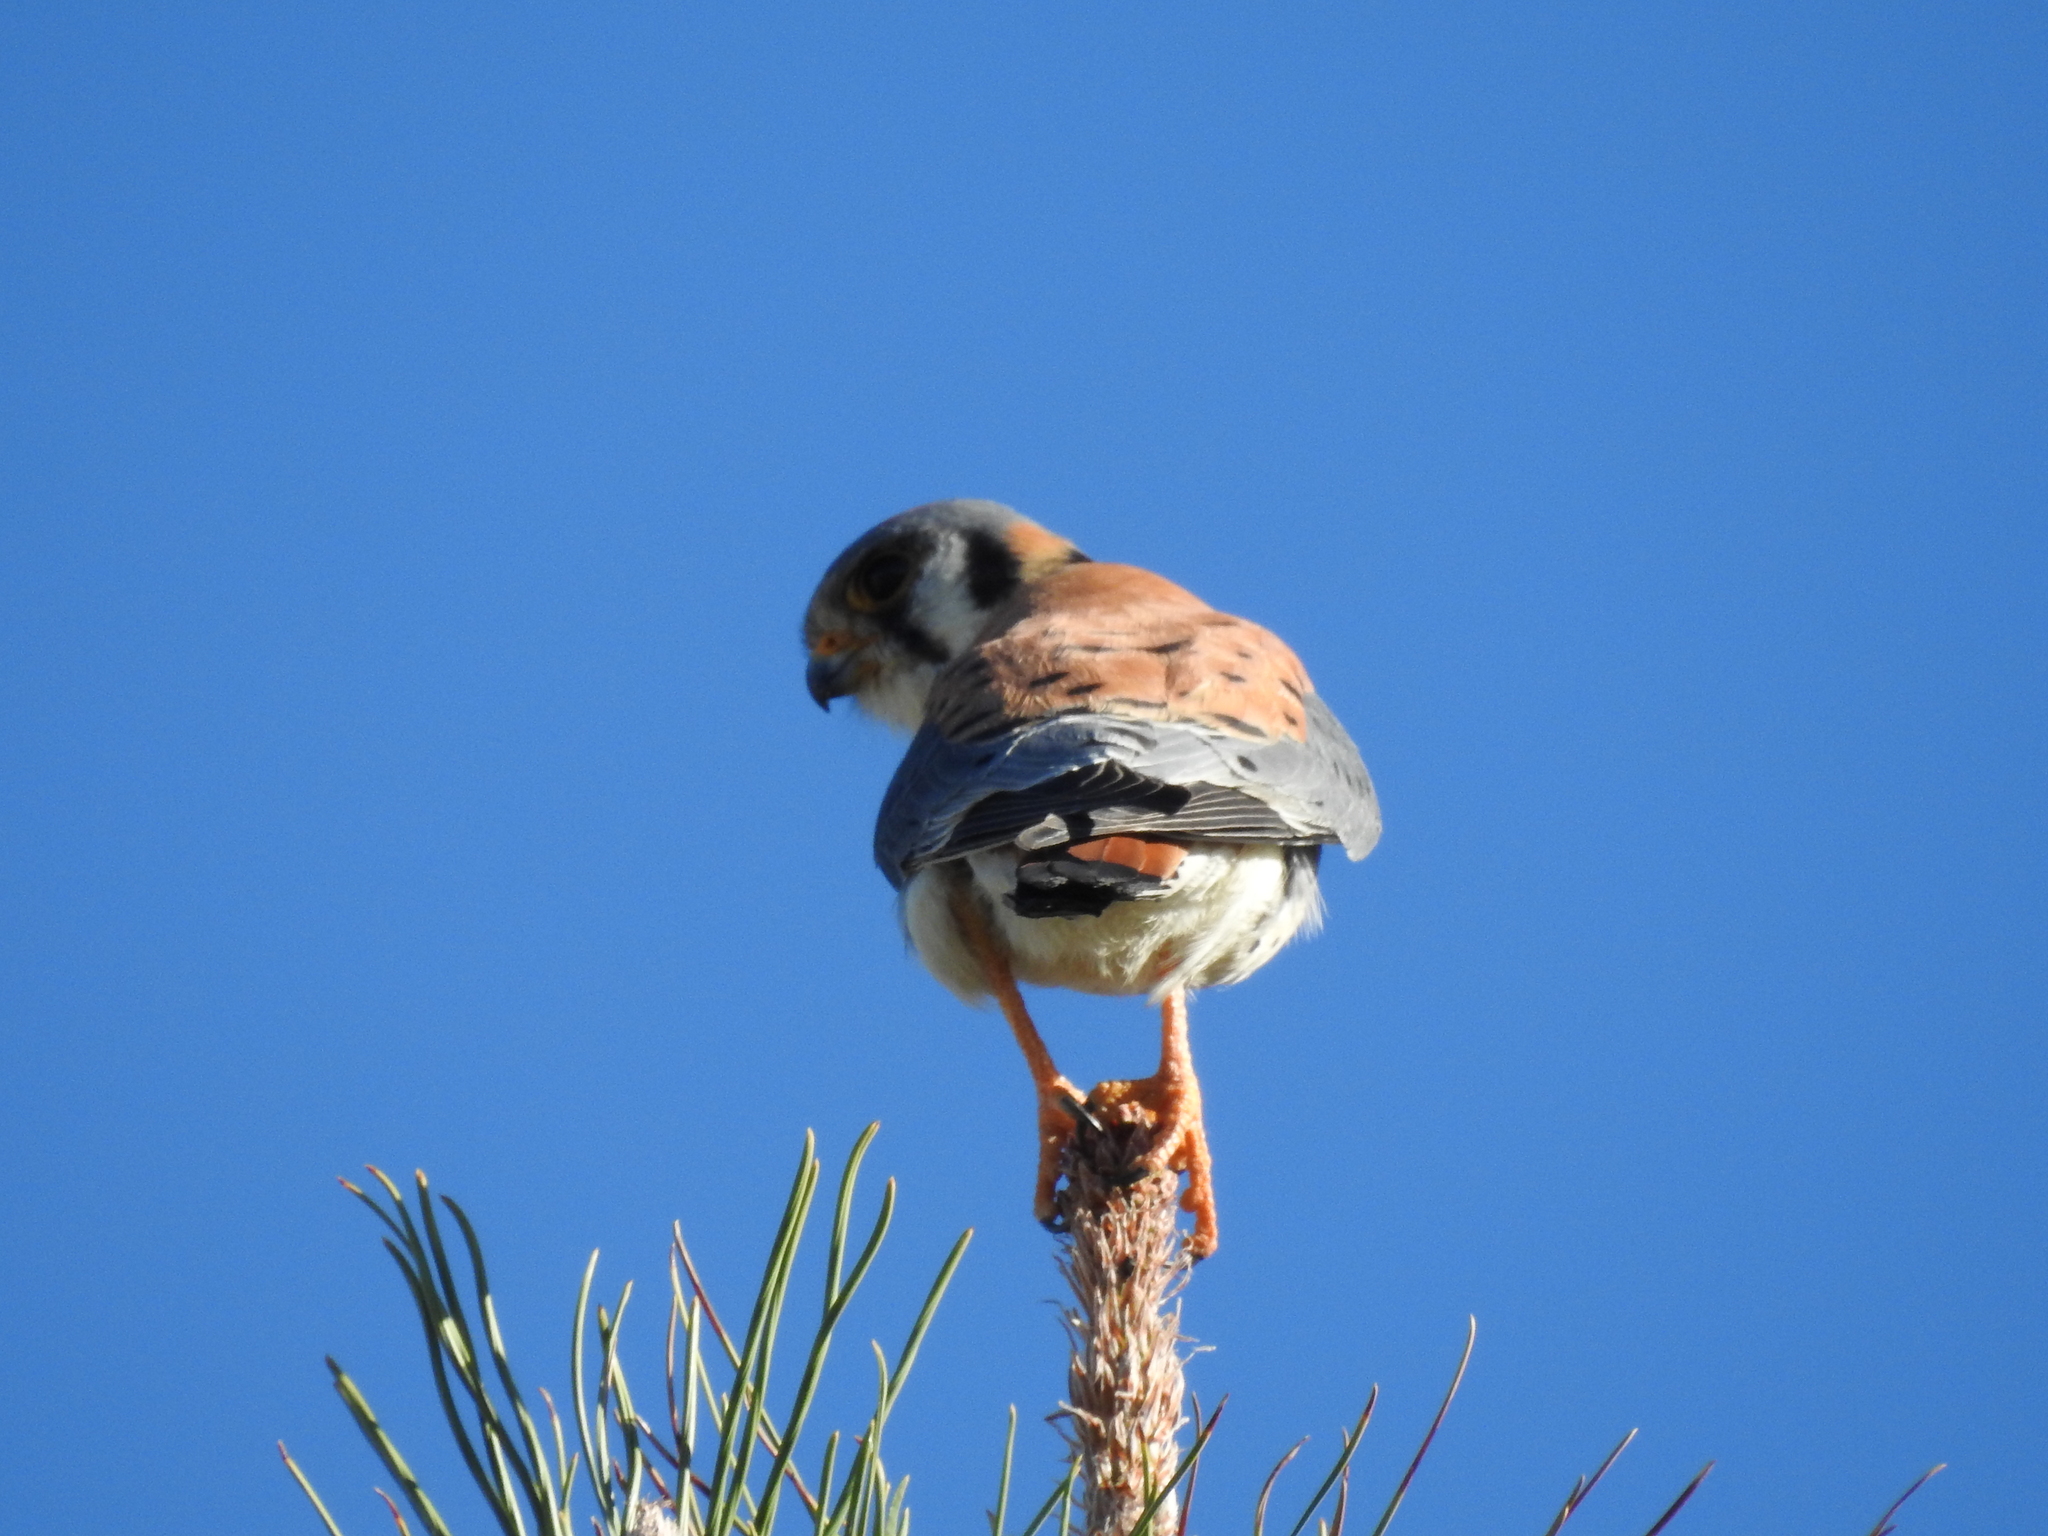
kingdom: Animalia
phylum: Chordata
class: Aves
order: Falconiformes
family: Falconidae
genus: Falco
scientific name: Falco sparverius
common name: American kestrel
